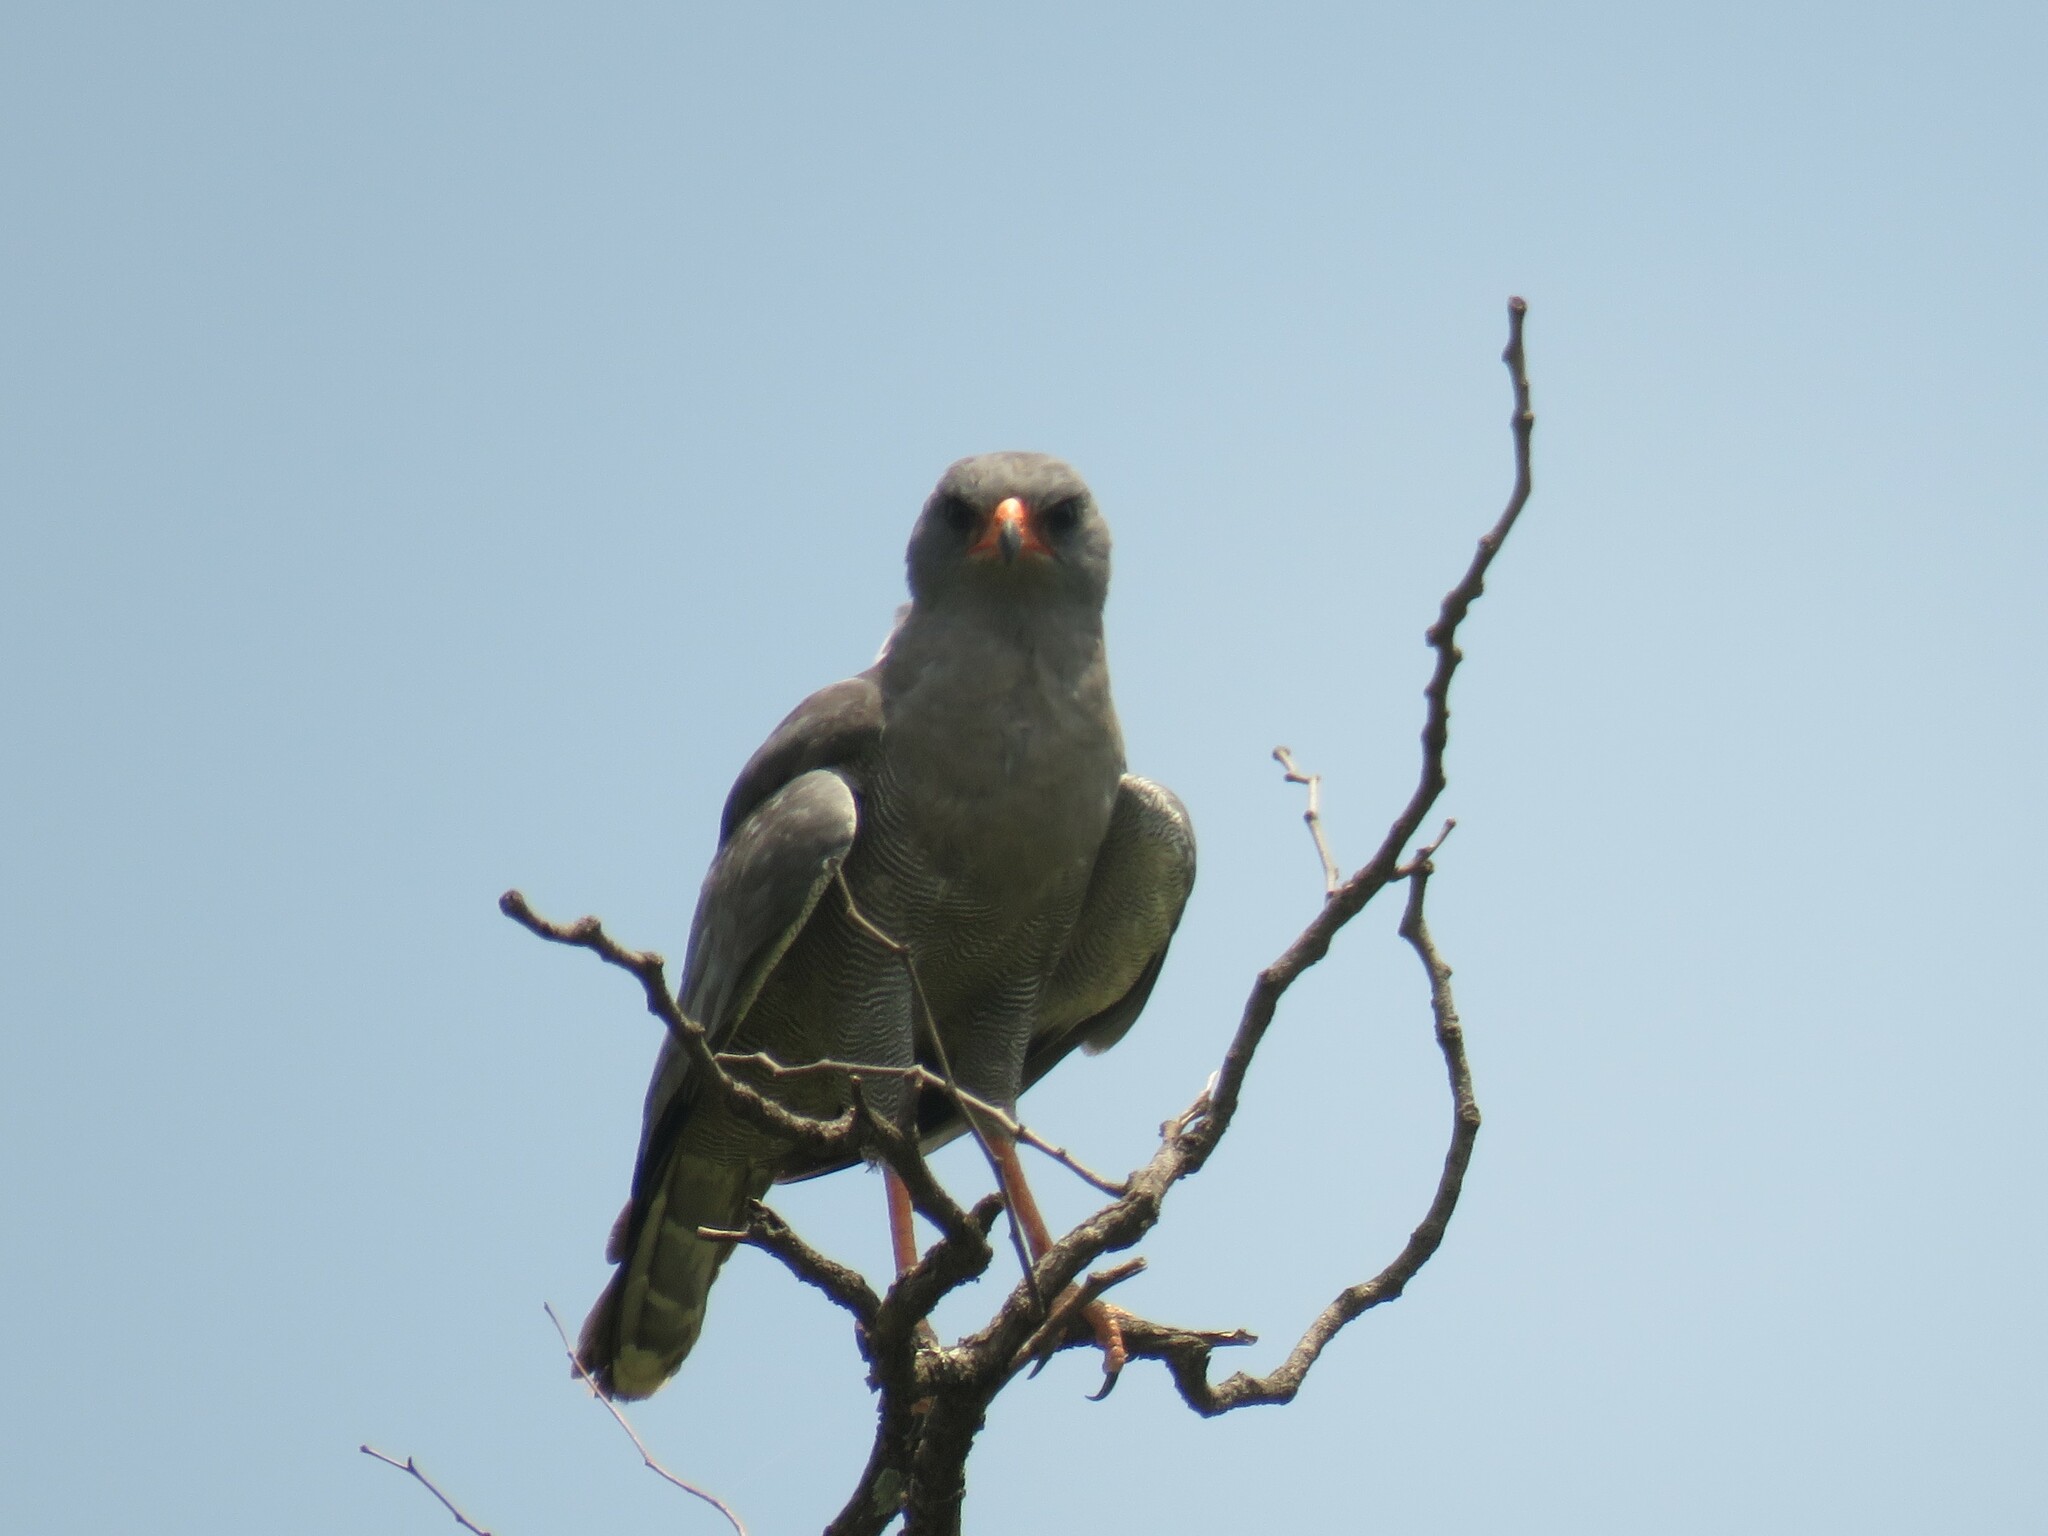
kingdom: Animalia
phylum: Chordata
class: Aves
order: Accipitriformes
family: Accipitridae
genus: Melierax
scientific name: Melierax metabates
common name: Dark chanting-goshawk
